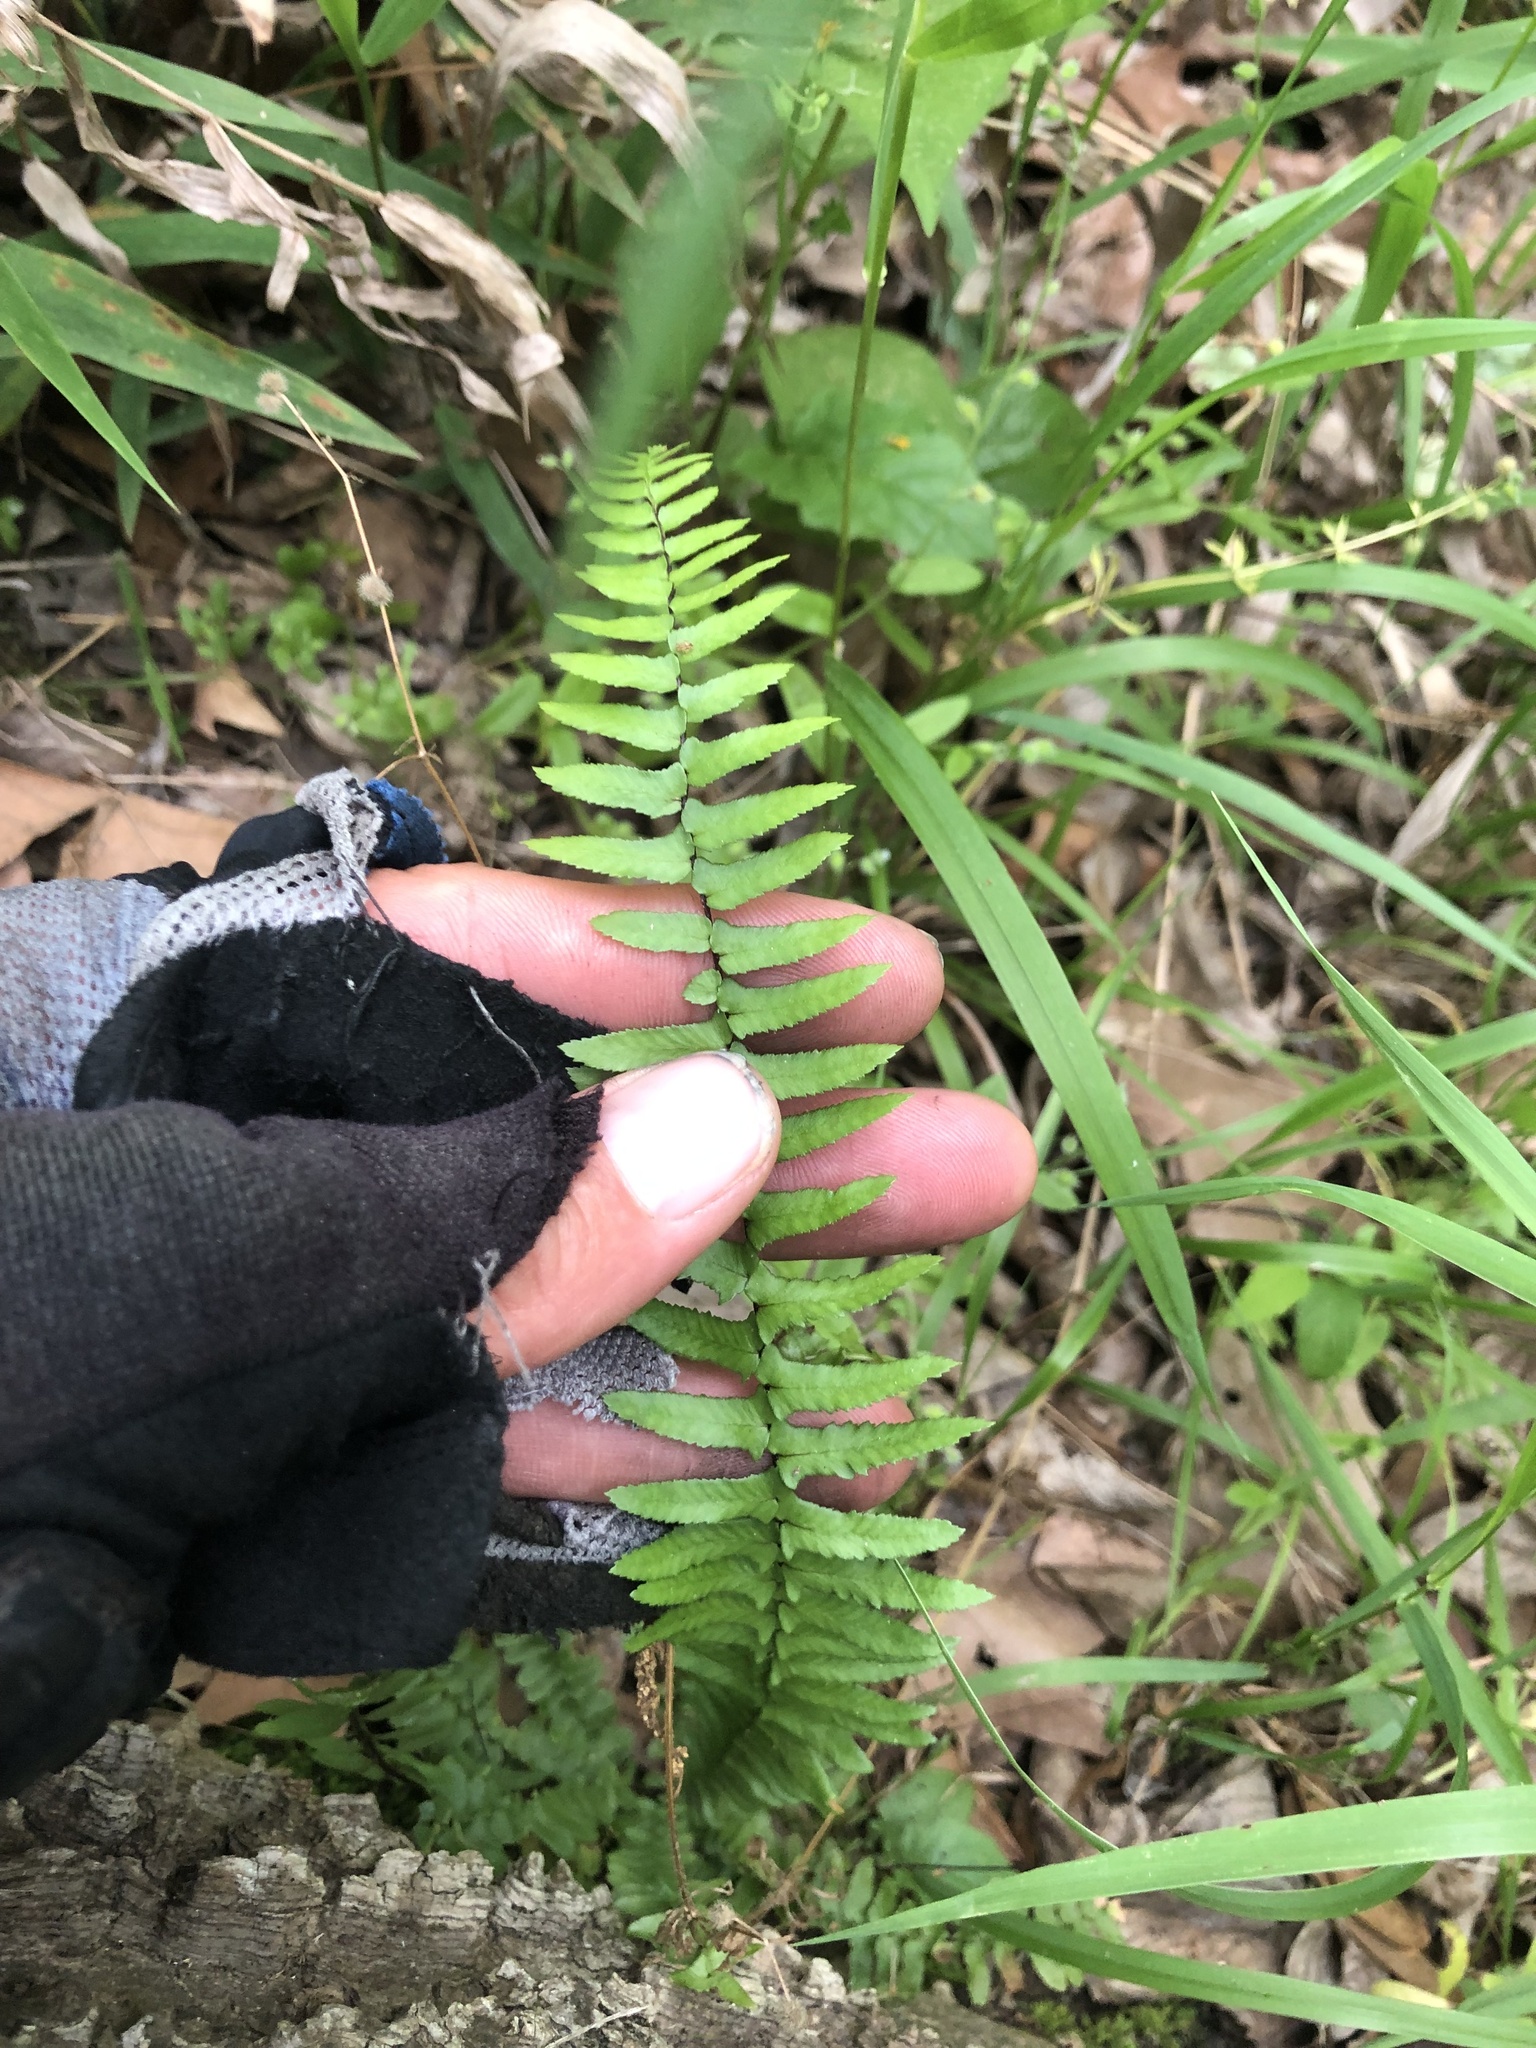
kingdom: Plantae
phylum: Tracheophyta
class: Polypodiopsida
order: Polypodiales
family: Aspleniaceae
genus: Asplenium
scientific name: Asplenium platyneuron
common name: Ebony spleenwort
